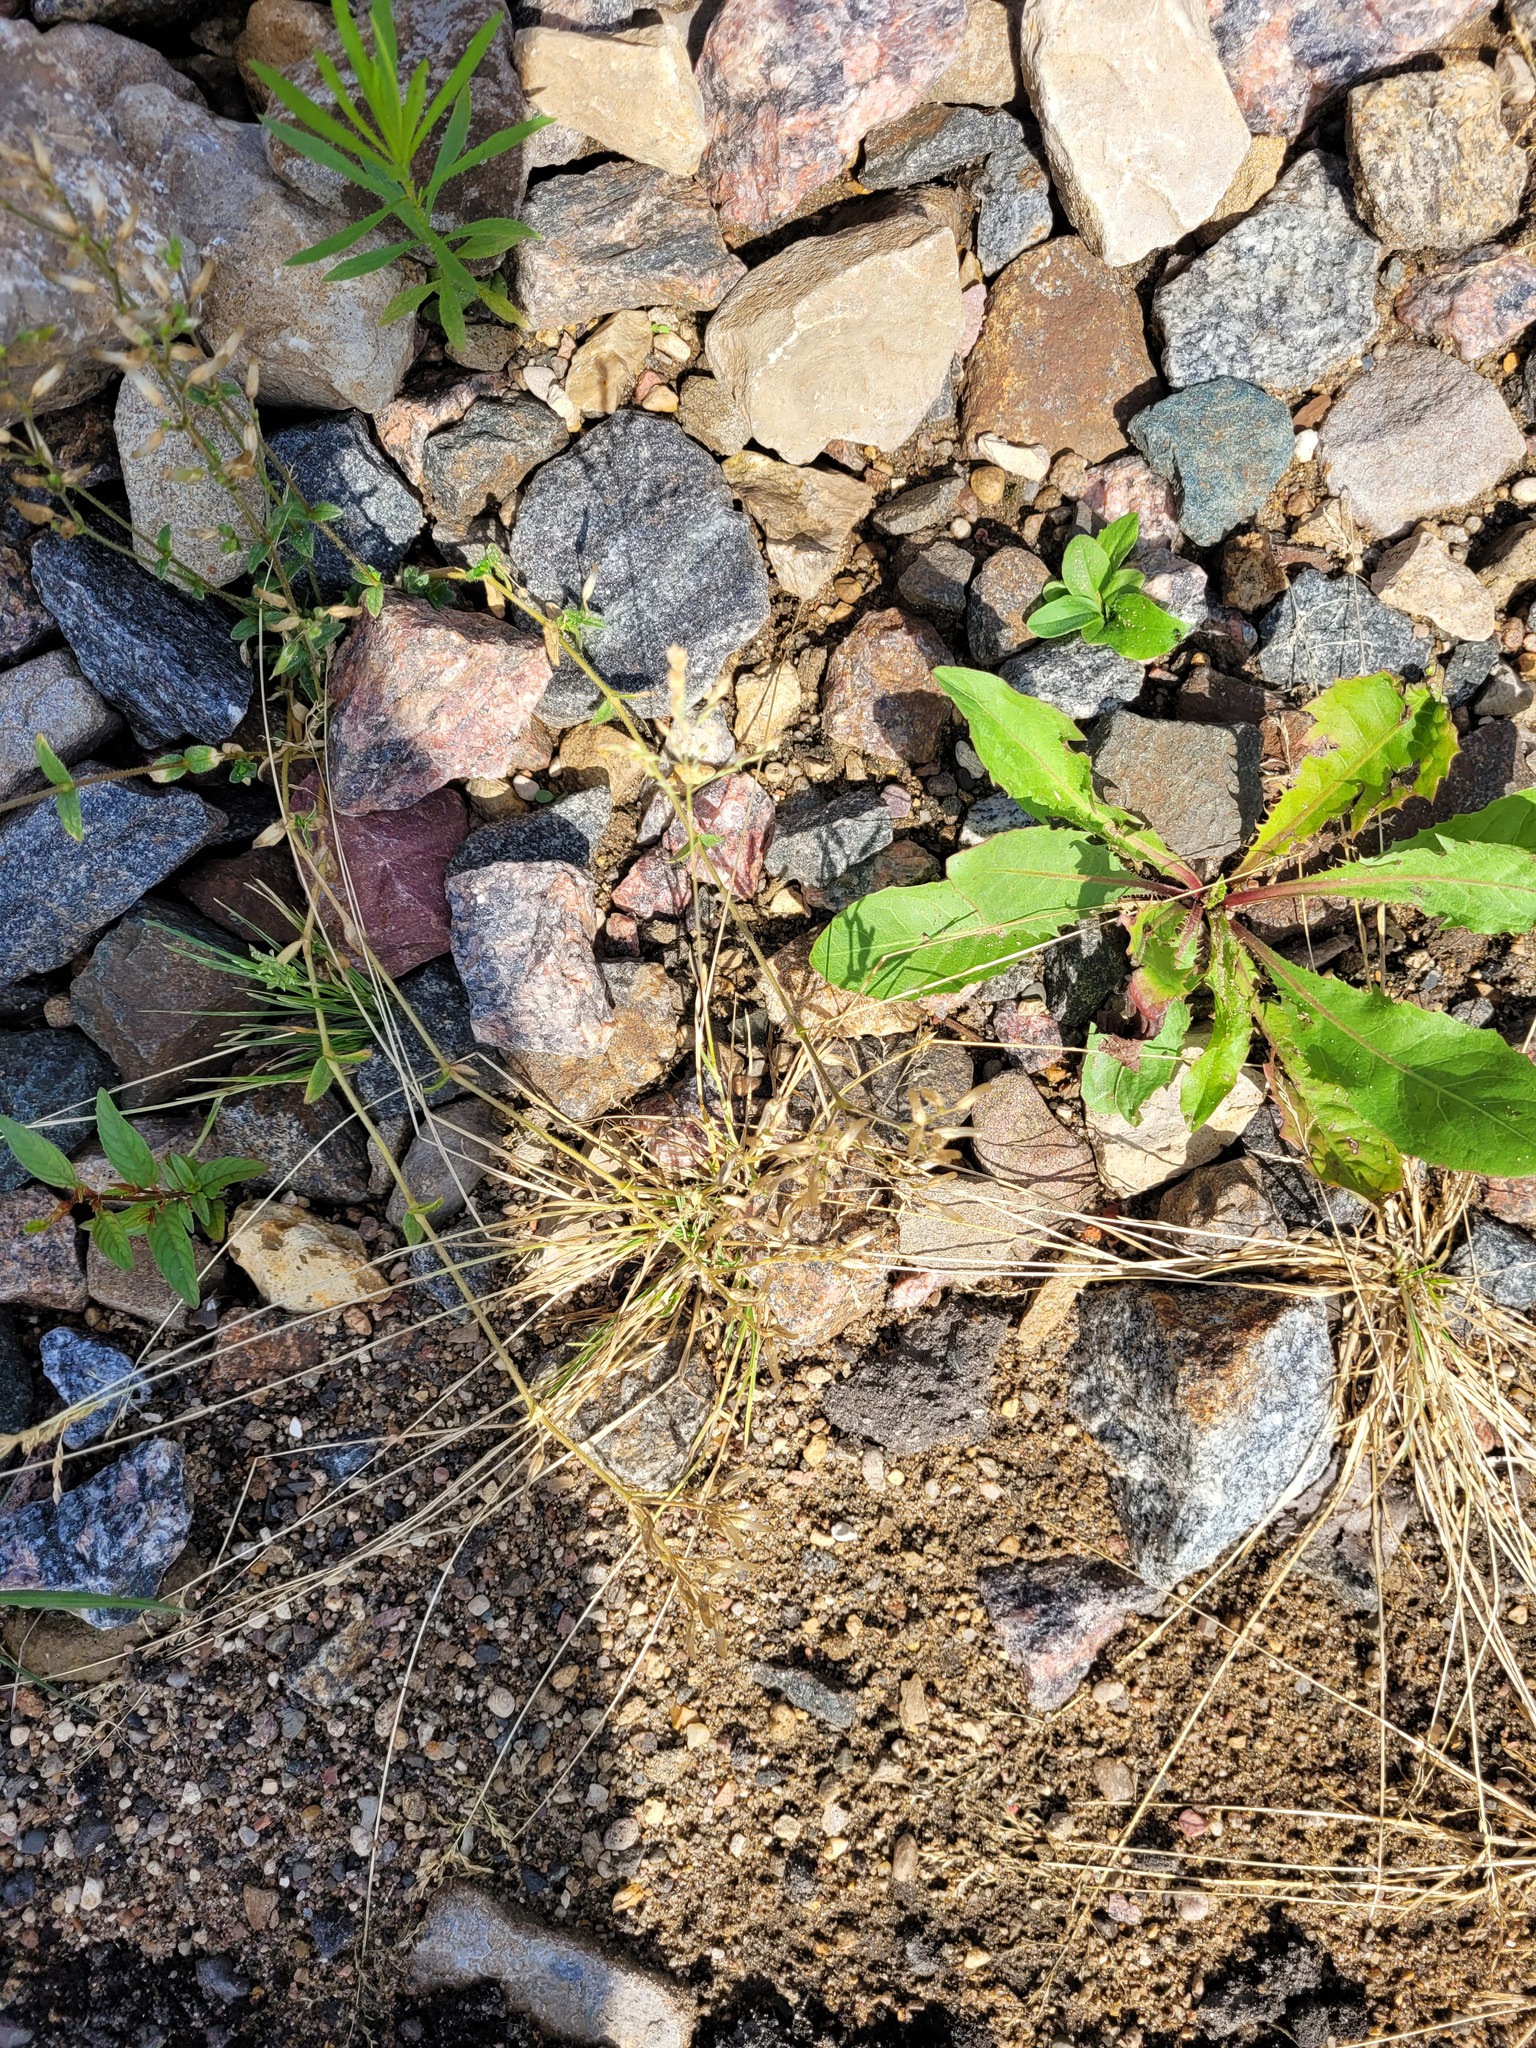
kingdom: Plantae
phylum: Tracheophyta
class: Liliopsida
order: Poales
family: Poaceae
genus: Poa
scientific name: Poa annua
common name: Annual bluegrass
